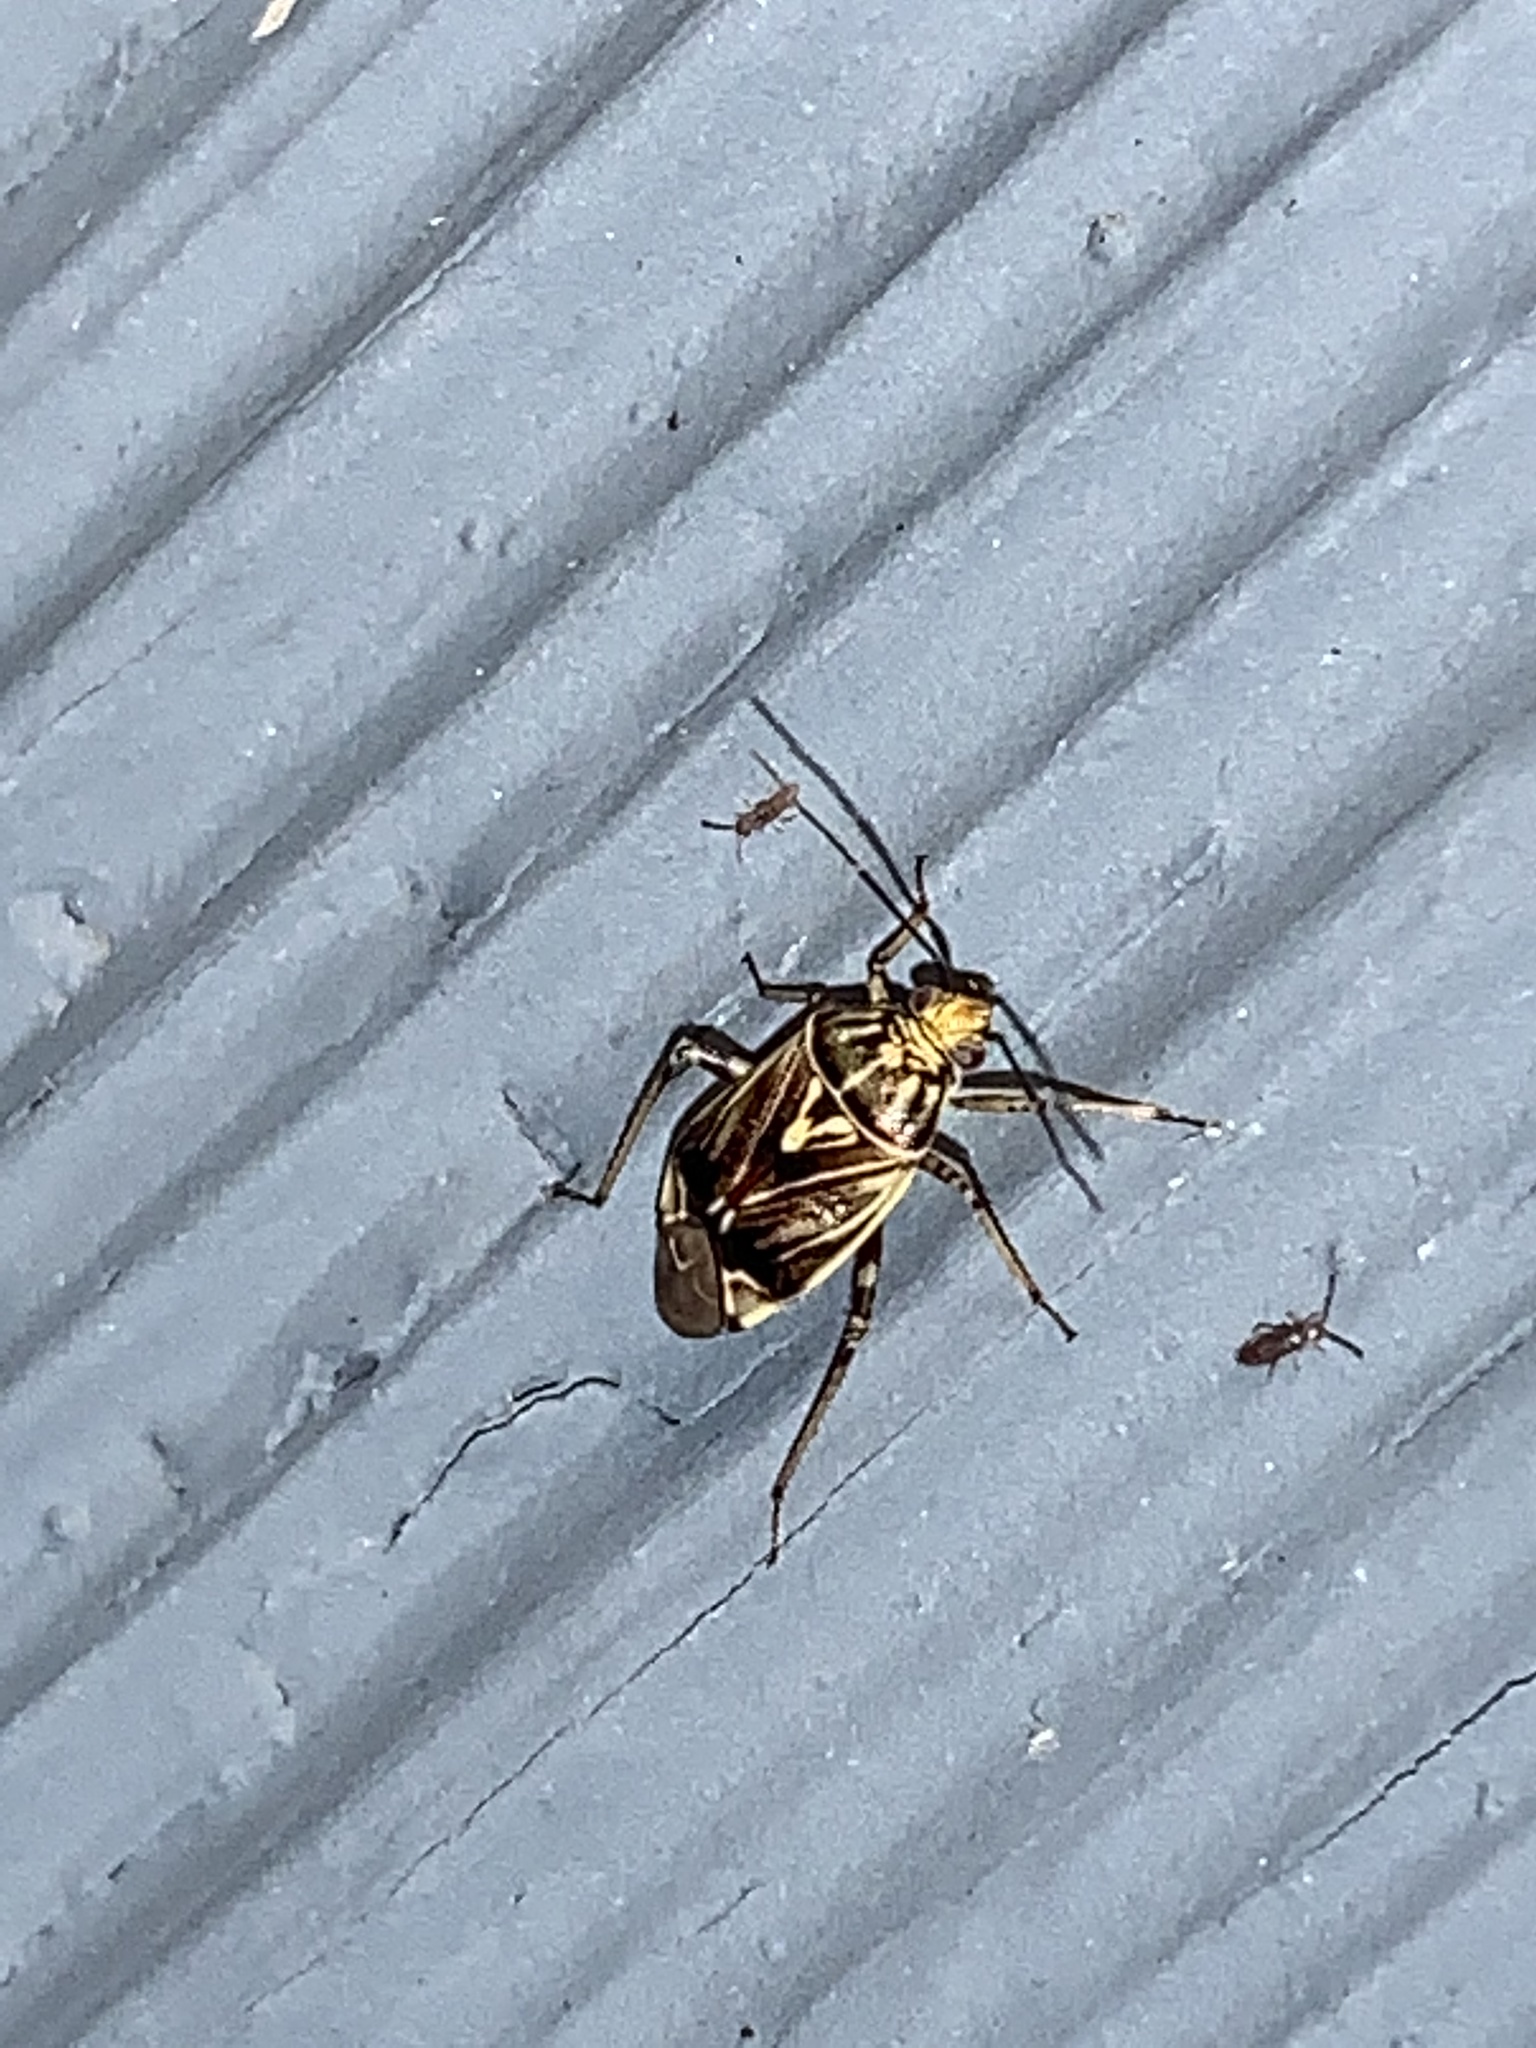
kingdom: Animalia
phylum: Arthropoda
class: Insecta
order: Hemiptera
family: Miridae
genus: Lygus
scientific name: Lygus lineolaris
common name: North american tarnished plant bug
